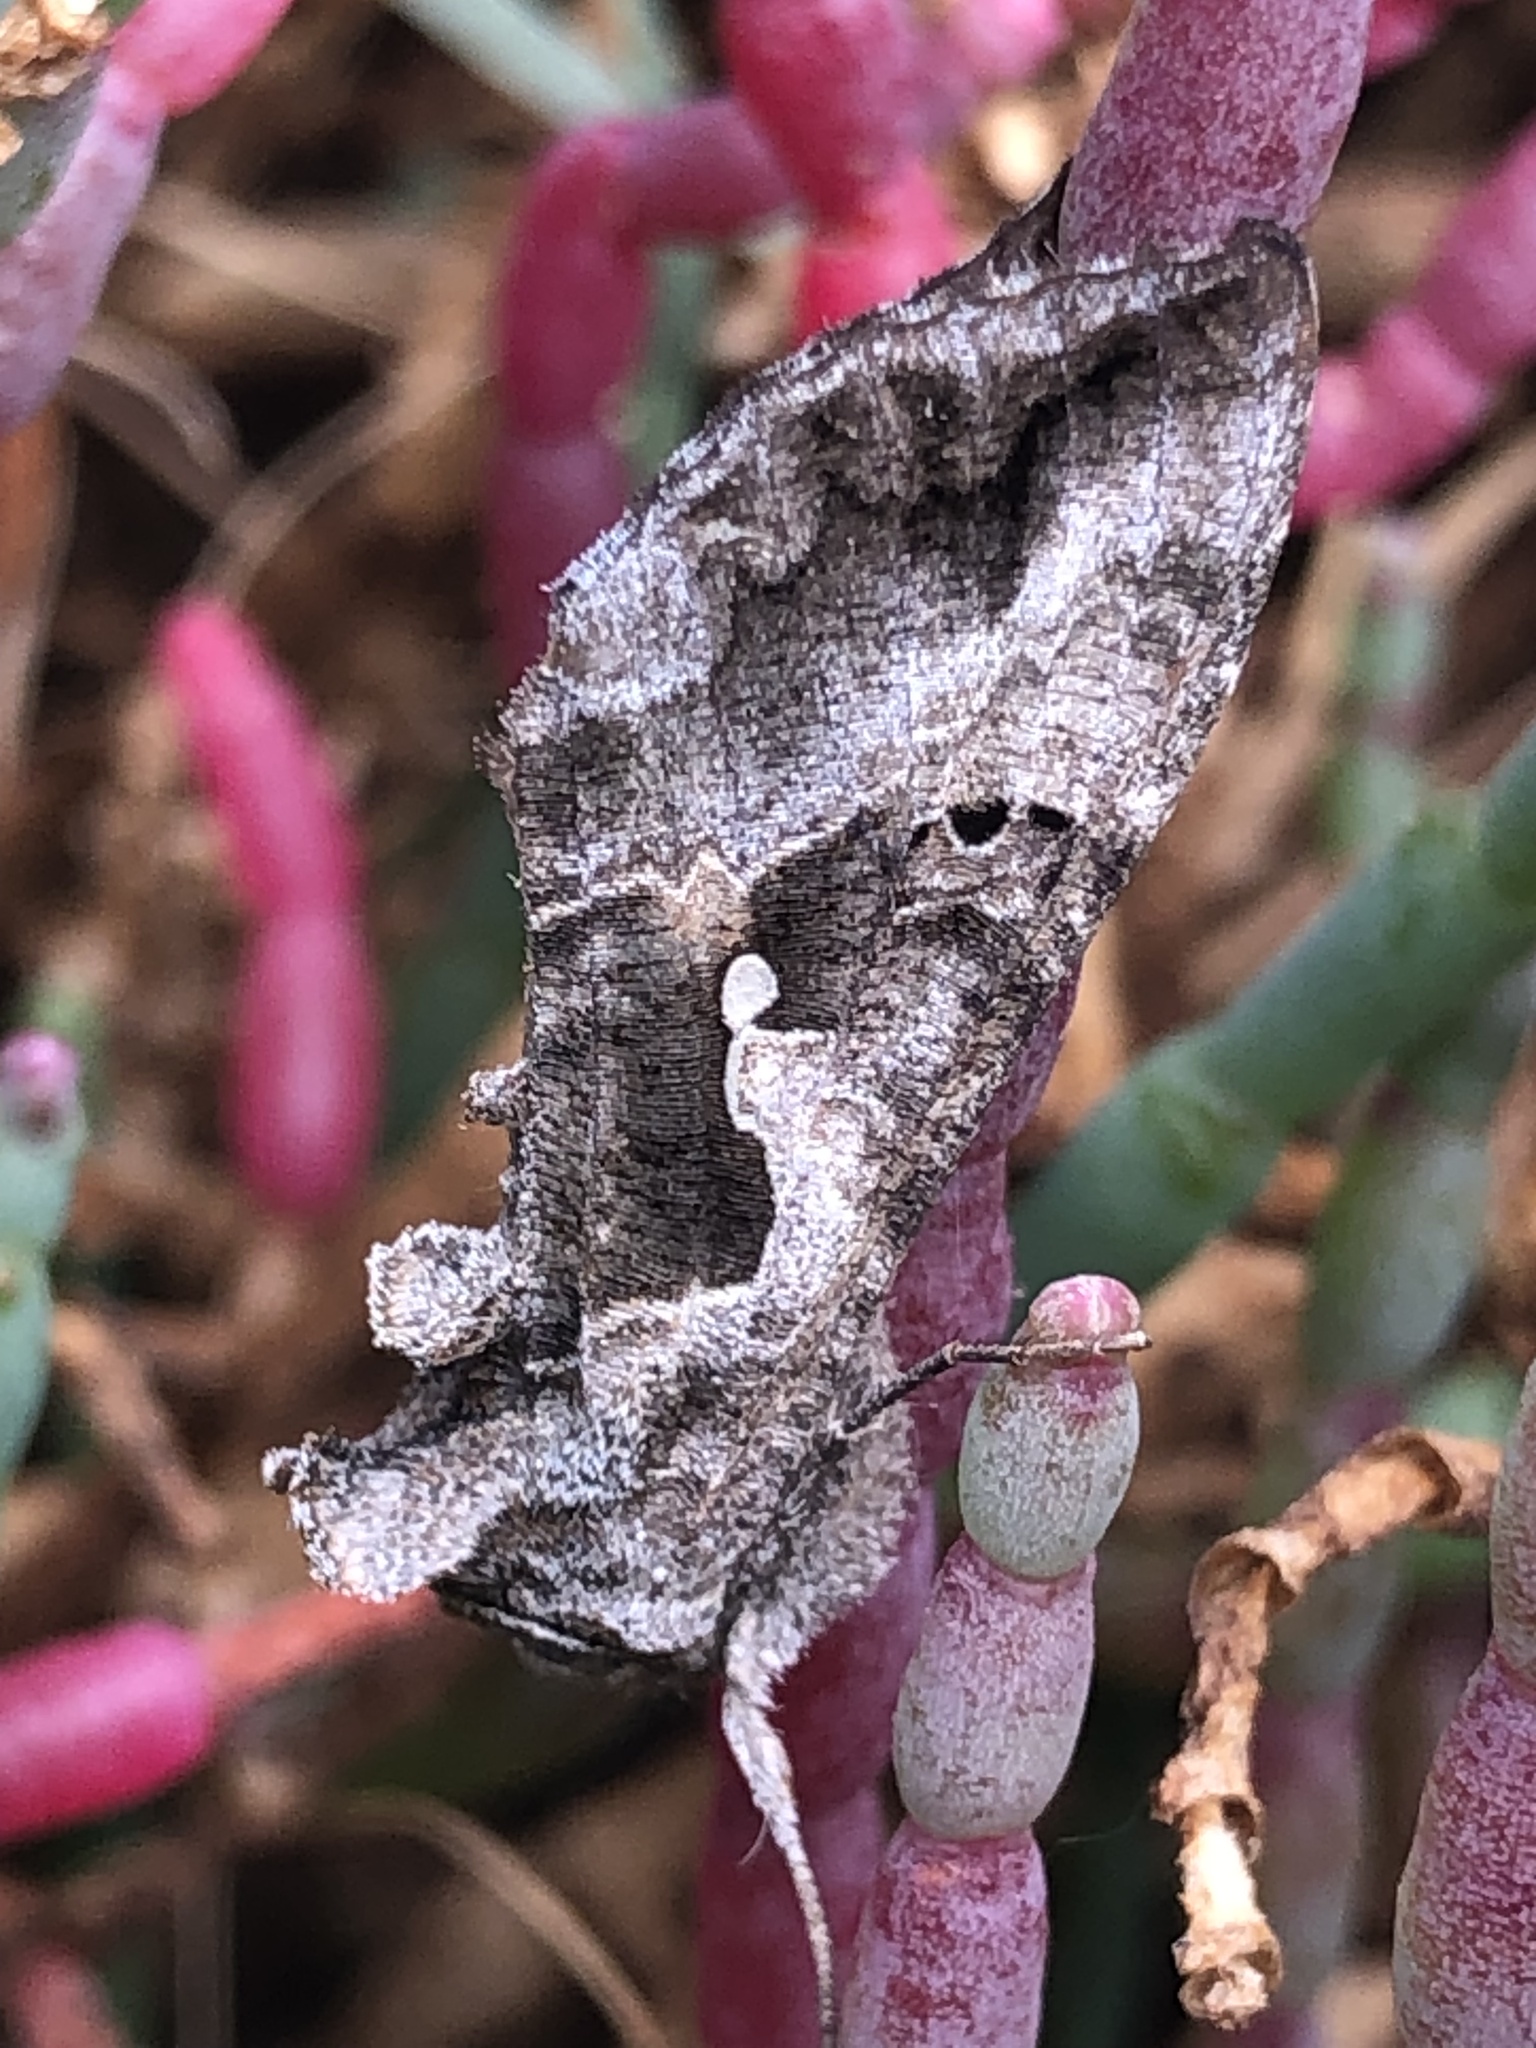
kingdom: Animalia
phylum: Arthropoda
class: Insecta
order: Lepidoptera
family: Noctuidae
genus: Autoplusia
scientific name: Autoplusia gammoides
